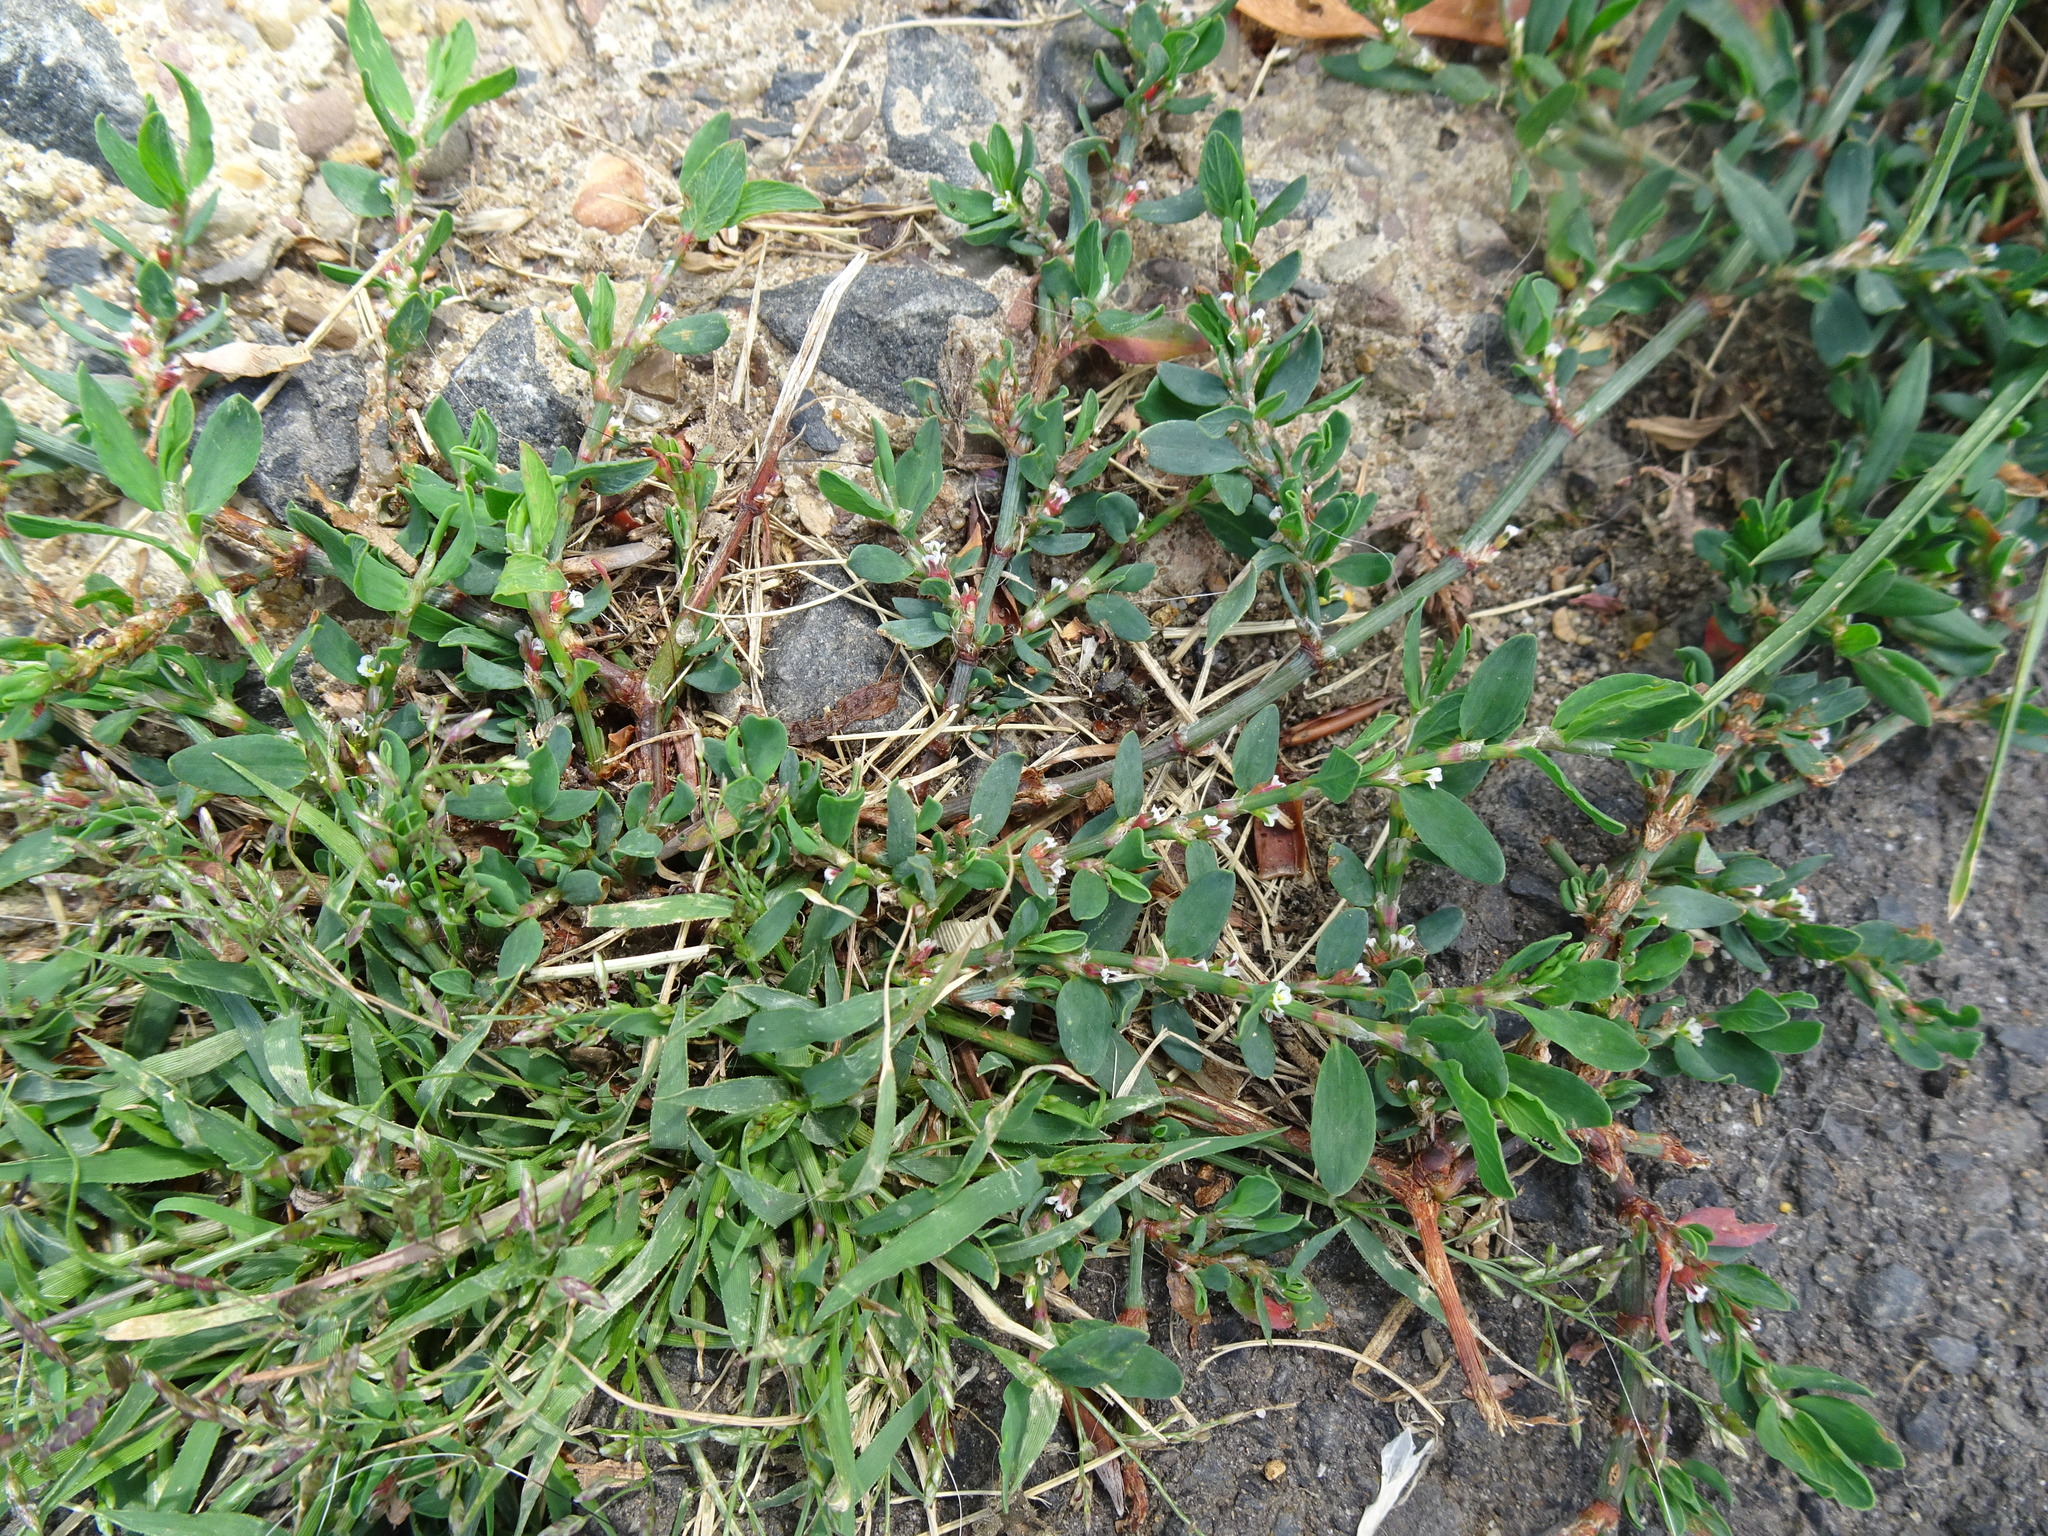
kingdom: Plantae
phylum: Tracheophyta
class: Magnoliopsida
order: Caryophyllales
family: Polygonaceae
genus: Polygonum
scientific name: Polygonum aviculare
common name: Prostrate knotweed
